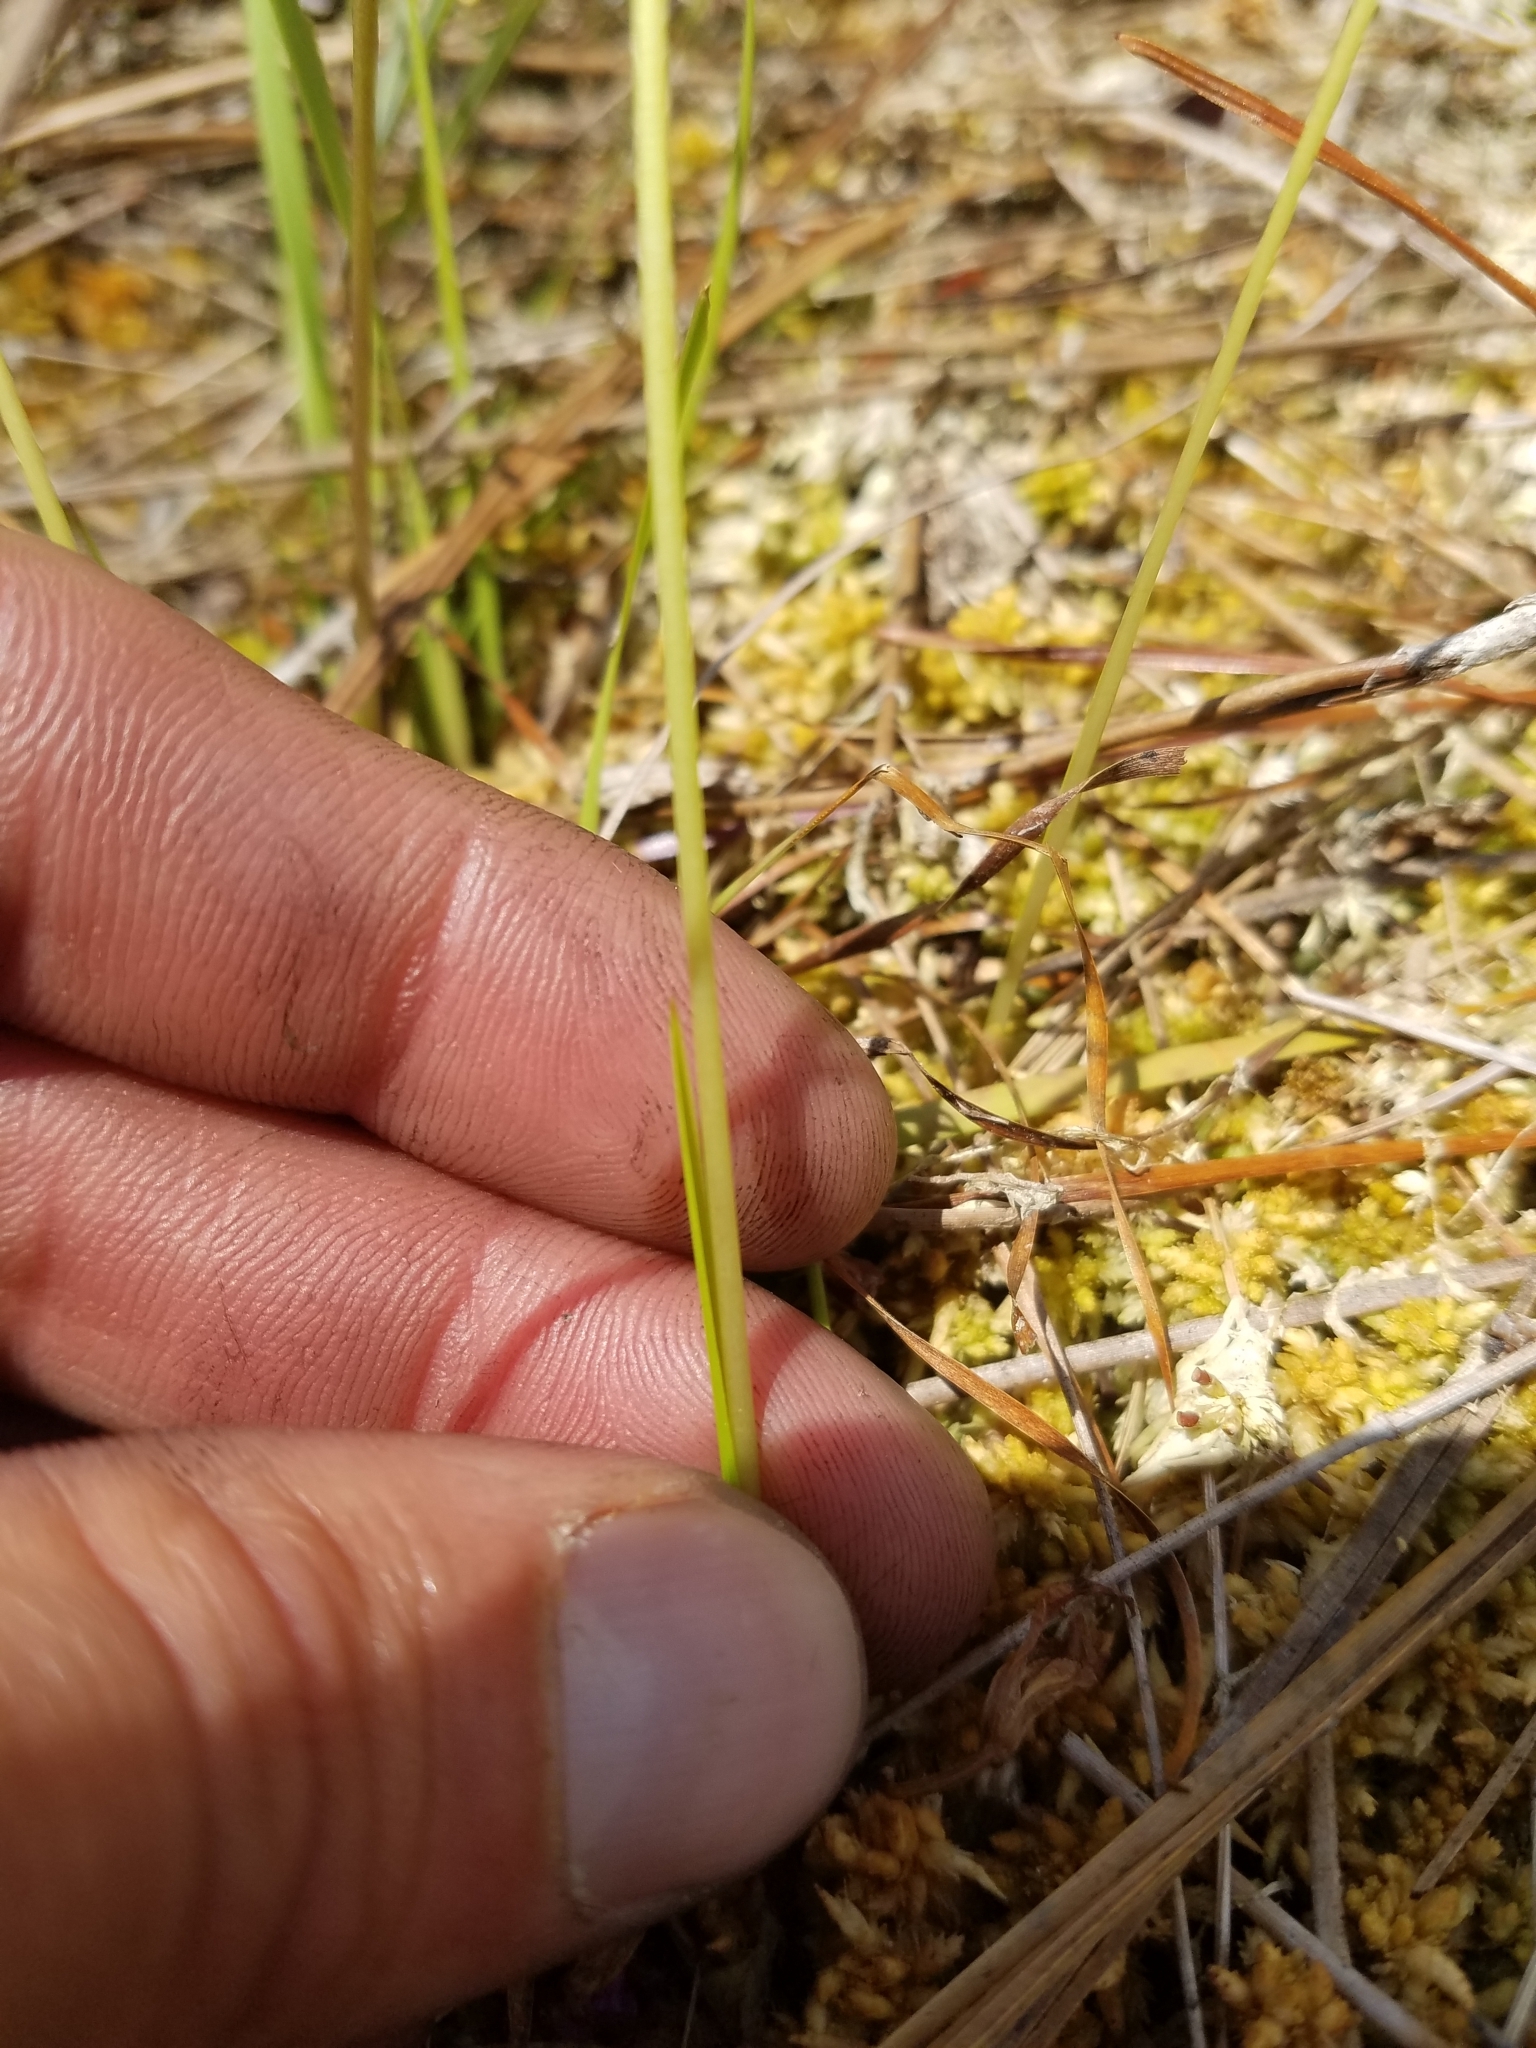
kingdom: Plantae
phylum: Tracheophyta
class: Liliopsida
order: Asparagales
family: Orchidaceae
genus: Calopogon
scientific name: Calopogon barbatus
